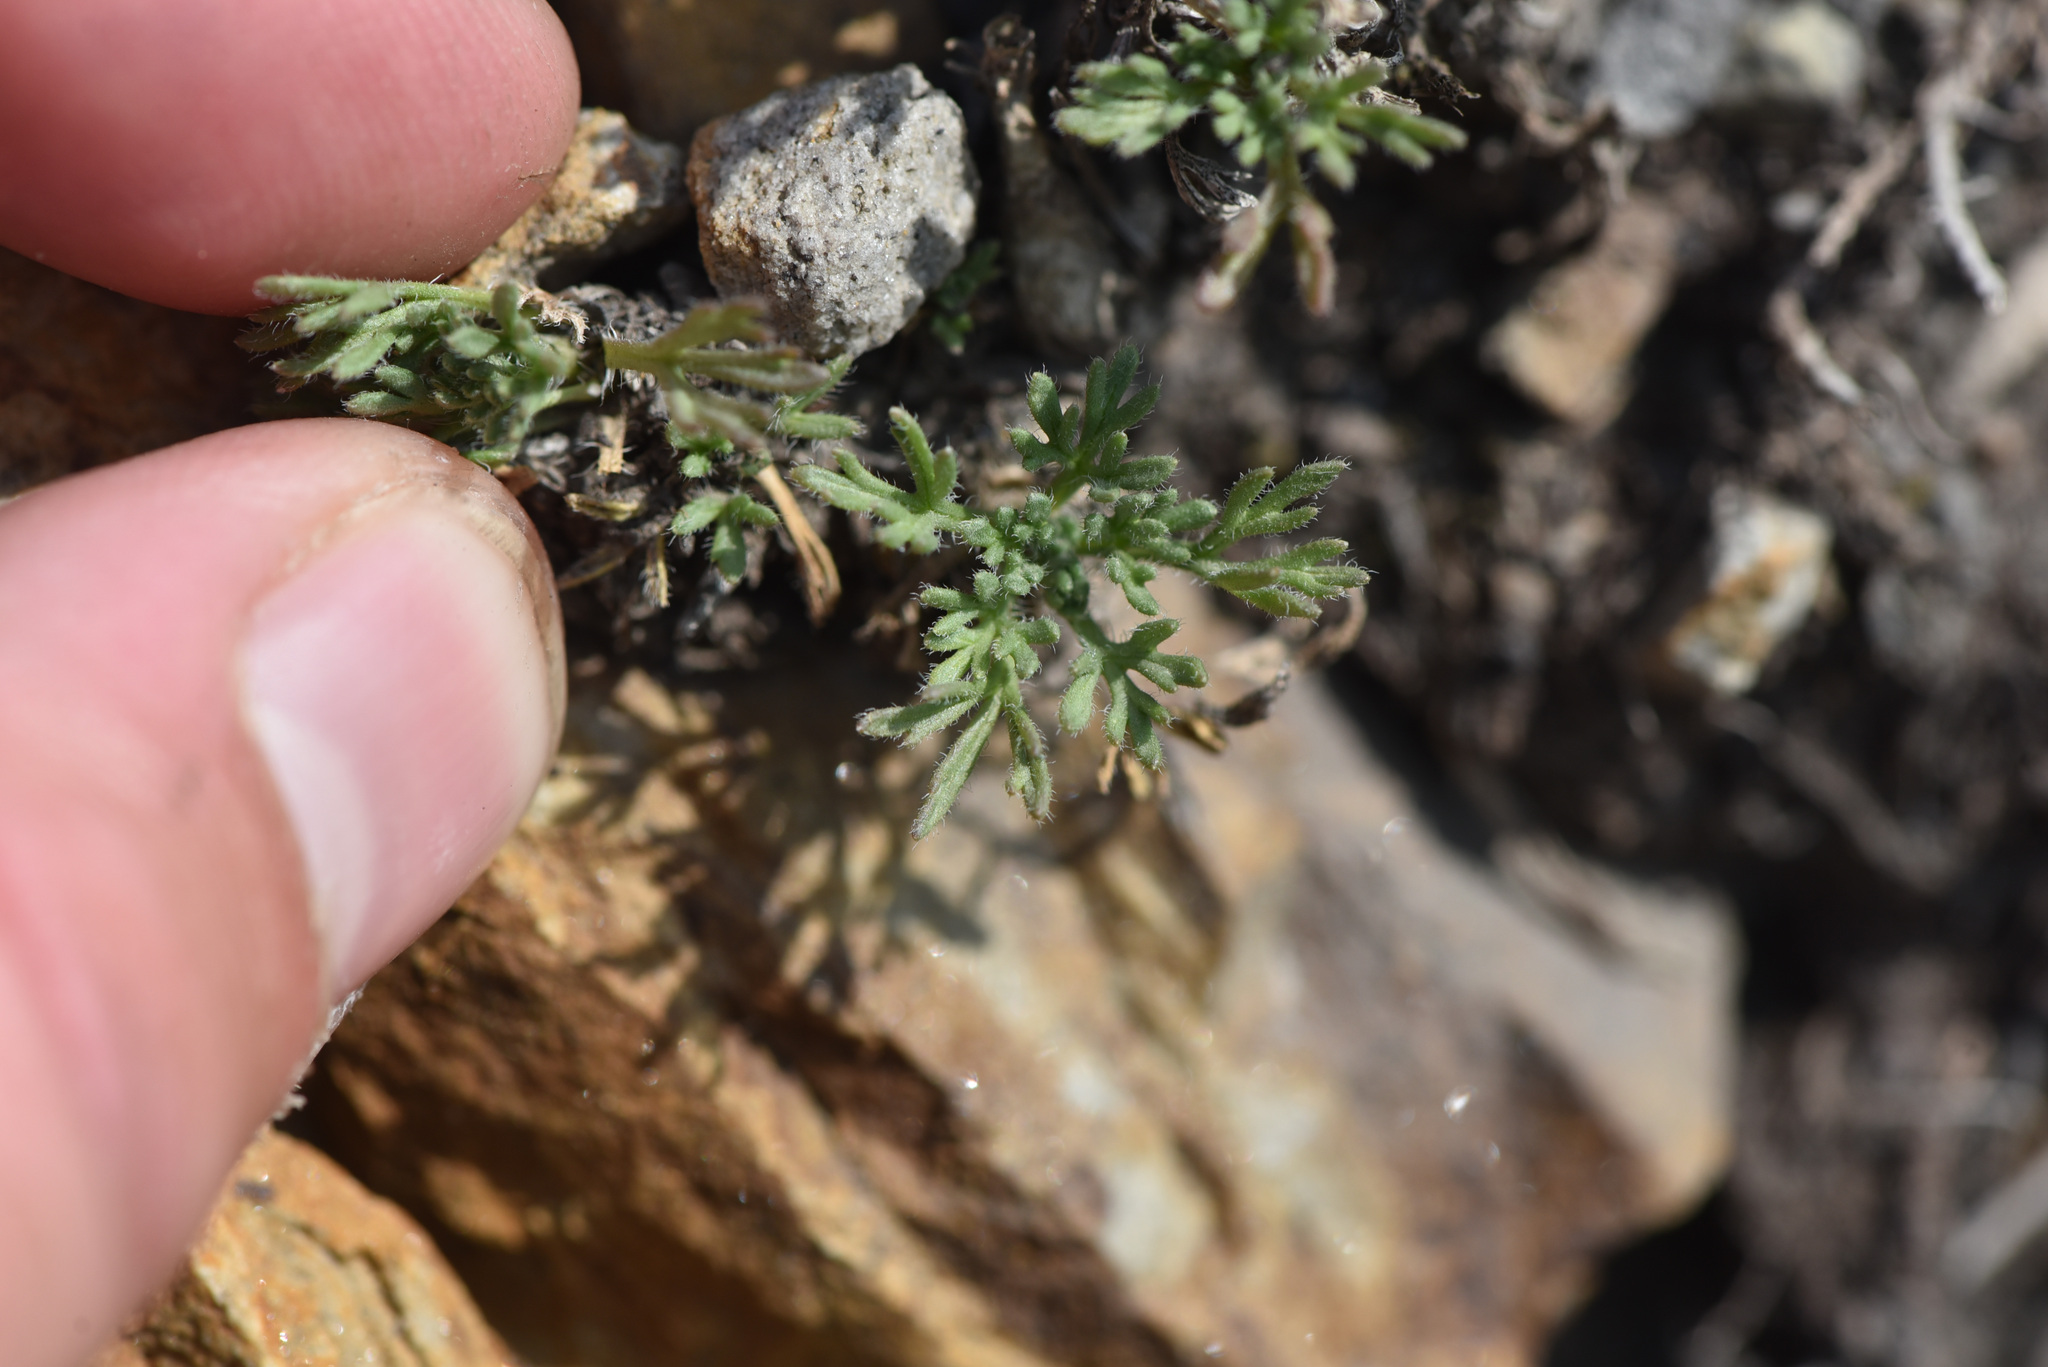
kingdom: Plantae
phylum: Tracheophyta
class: Magnoliopsida
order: Asterales
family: Asteraceae
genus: Erigeron
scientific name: Erigeron compositus
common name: Dwarf mountain fleabane
